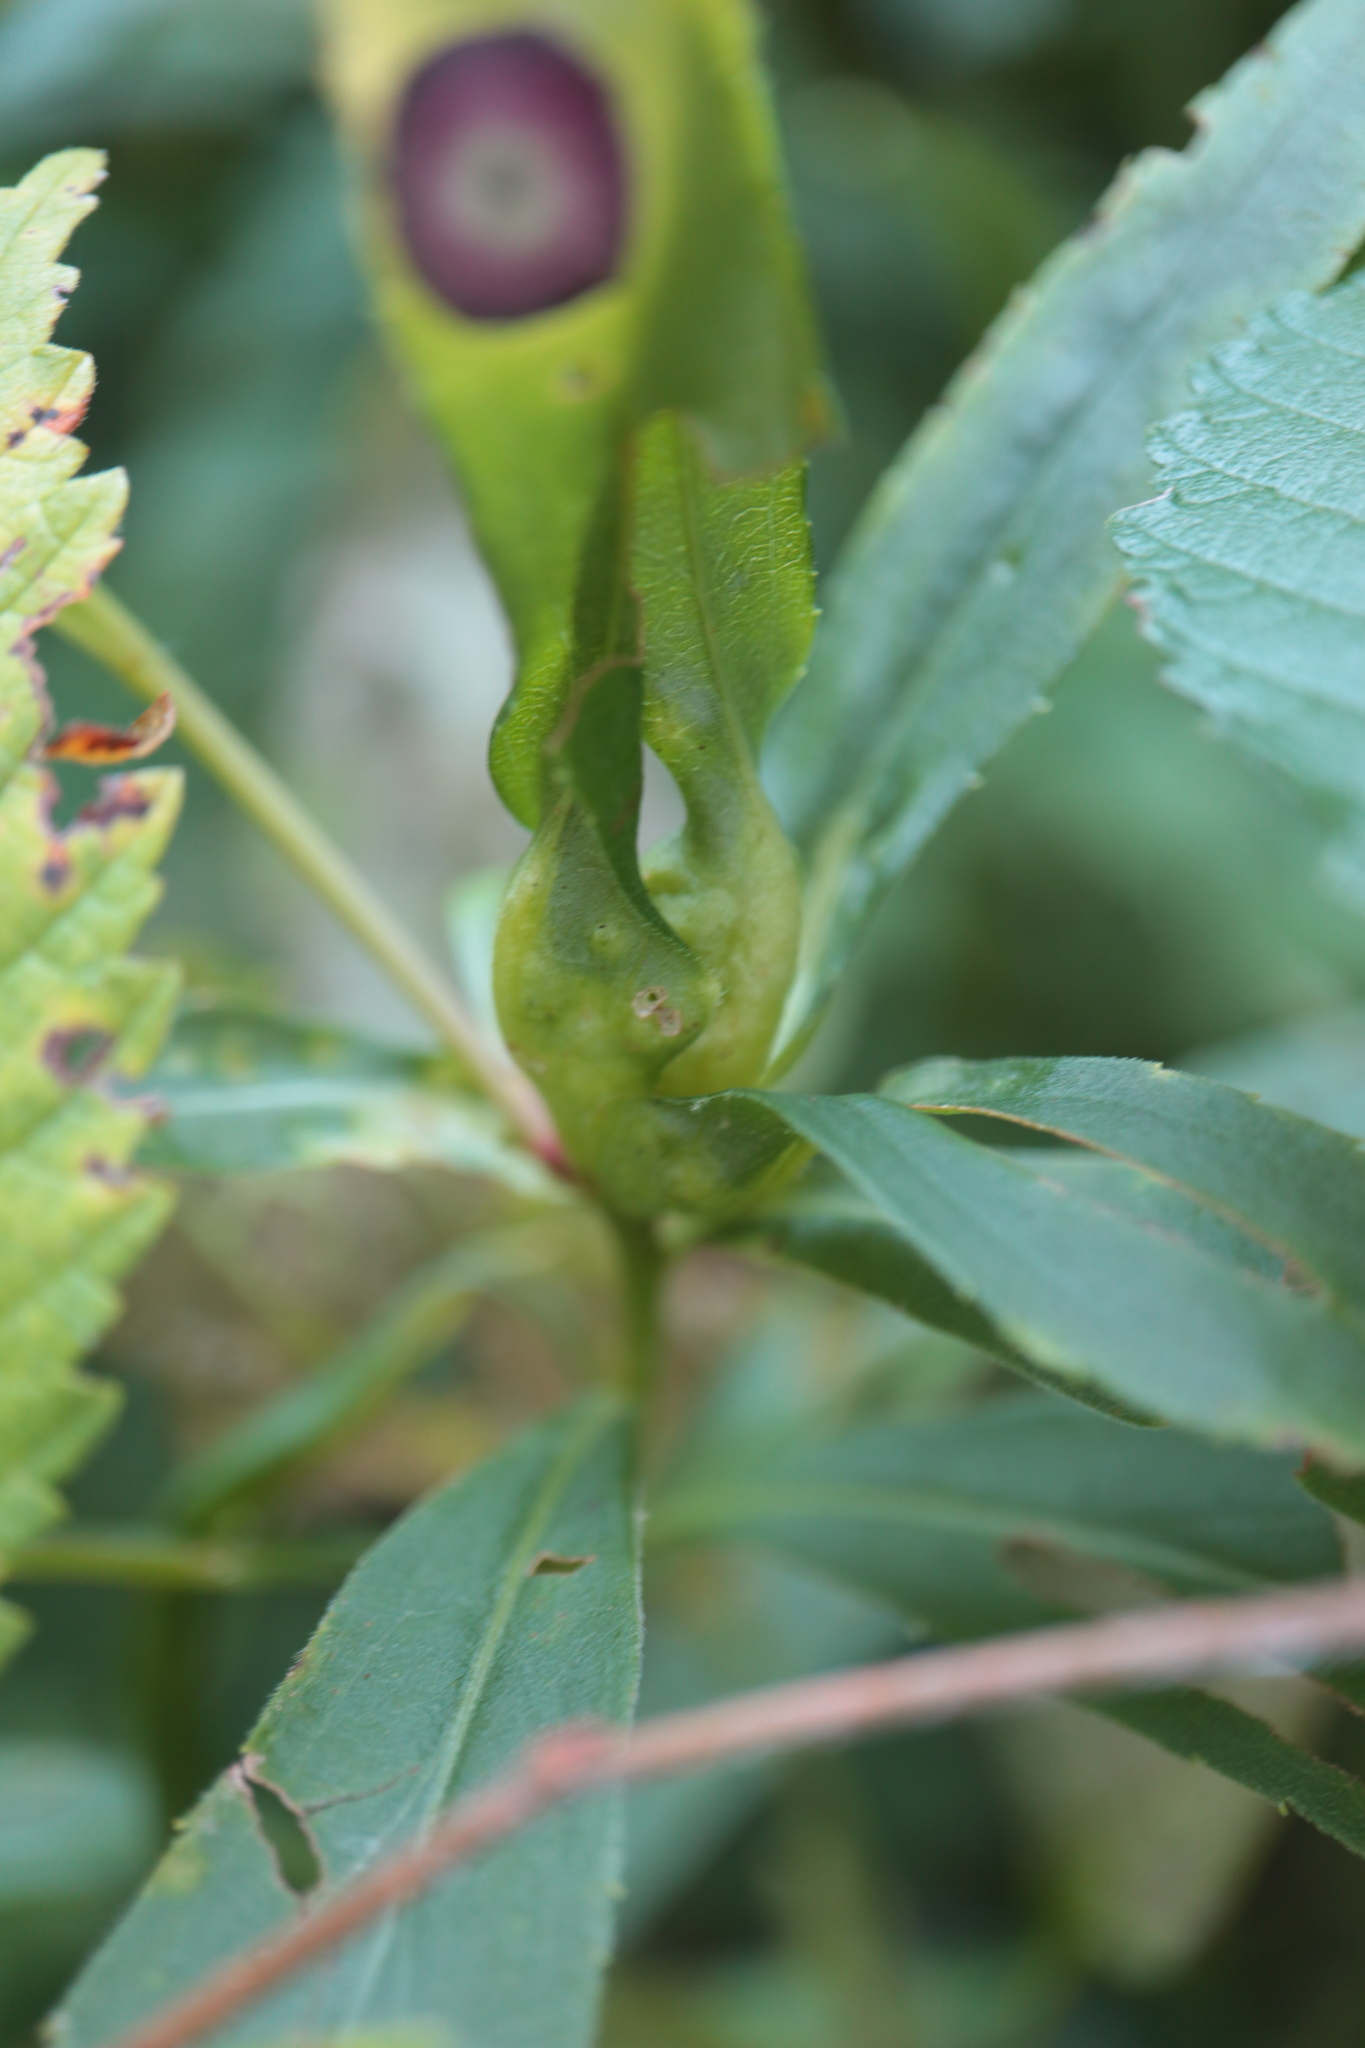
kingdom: Animalia
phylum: Arthropoda
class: Insecta
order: Diptera
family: Cecidomyiidae
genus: Dasineura
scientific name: Dasineura folliculi
